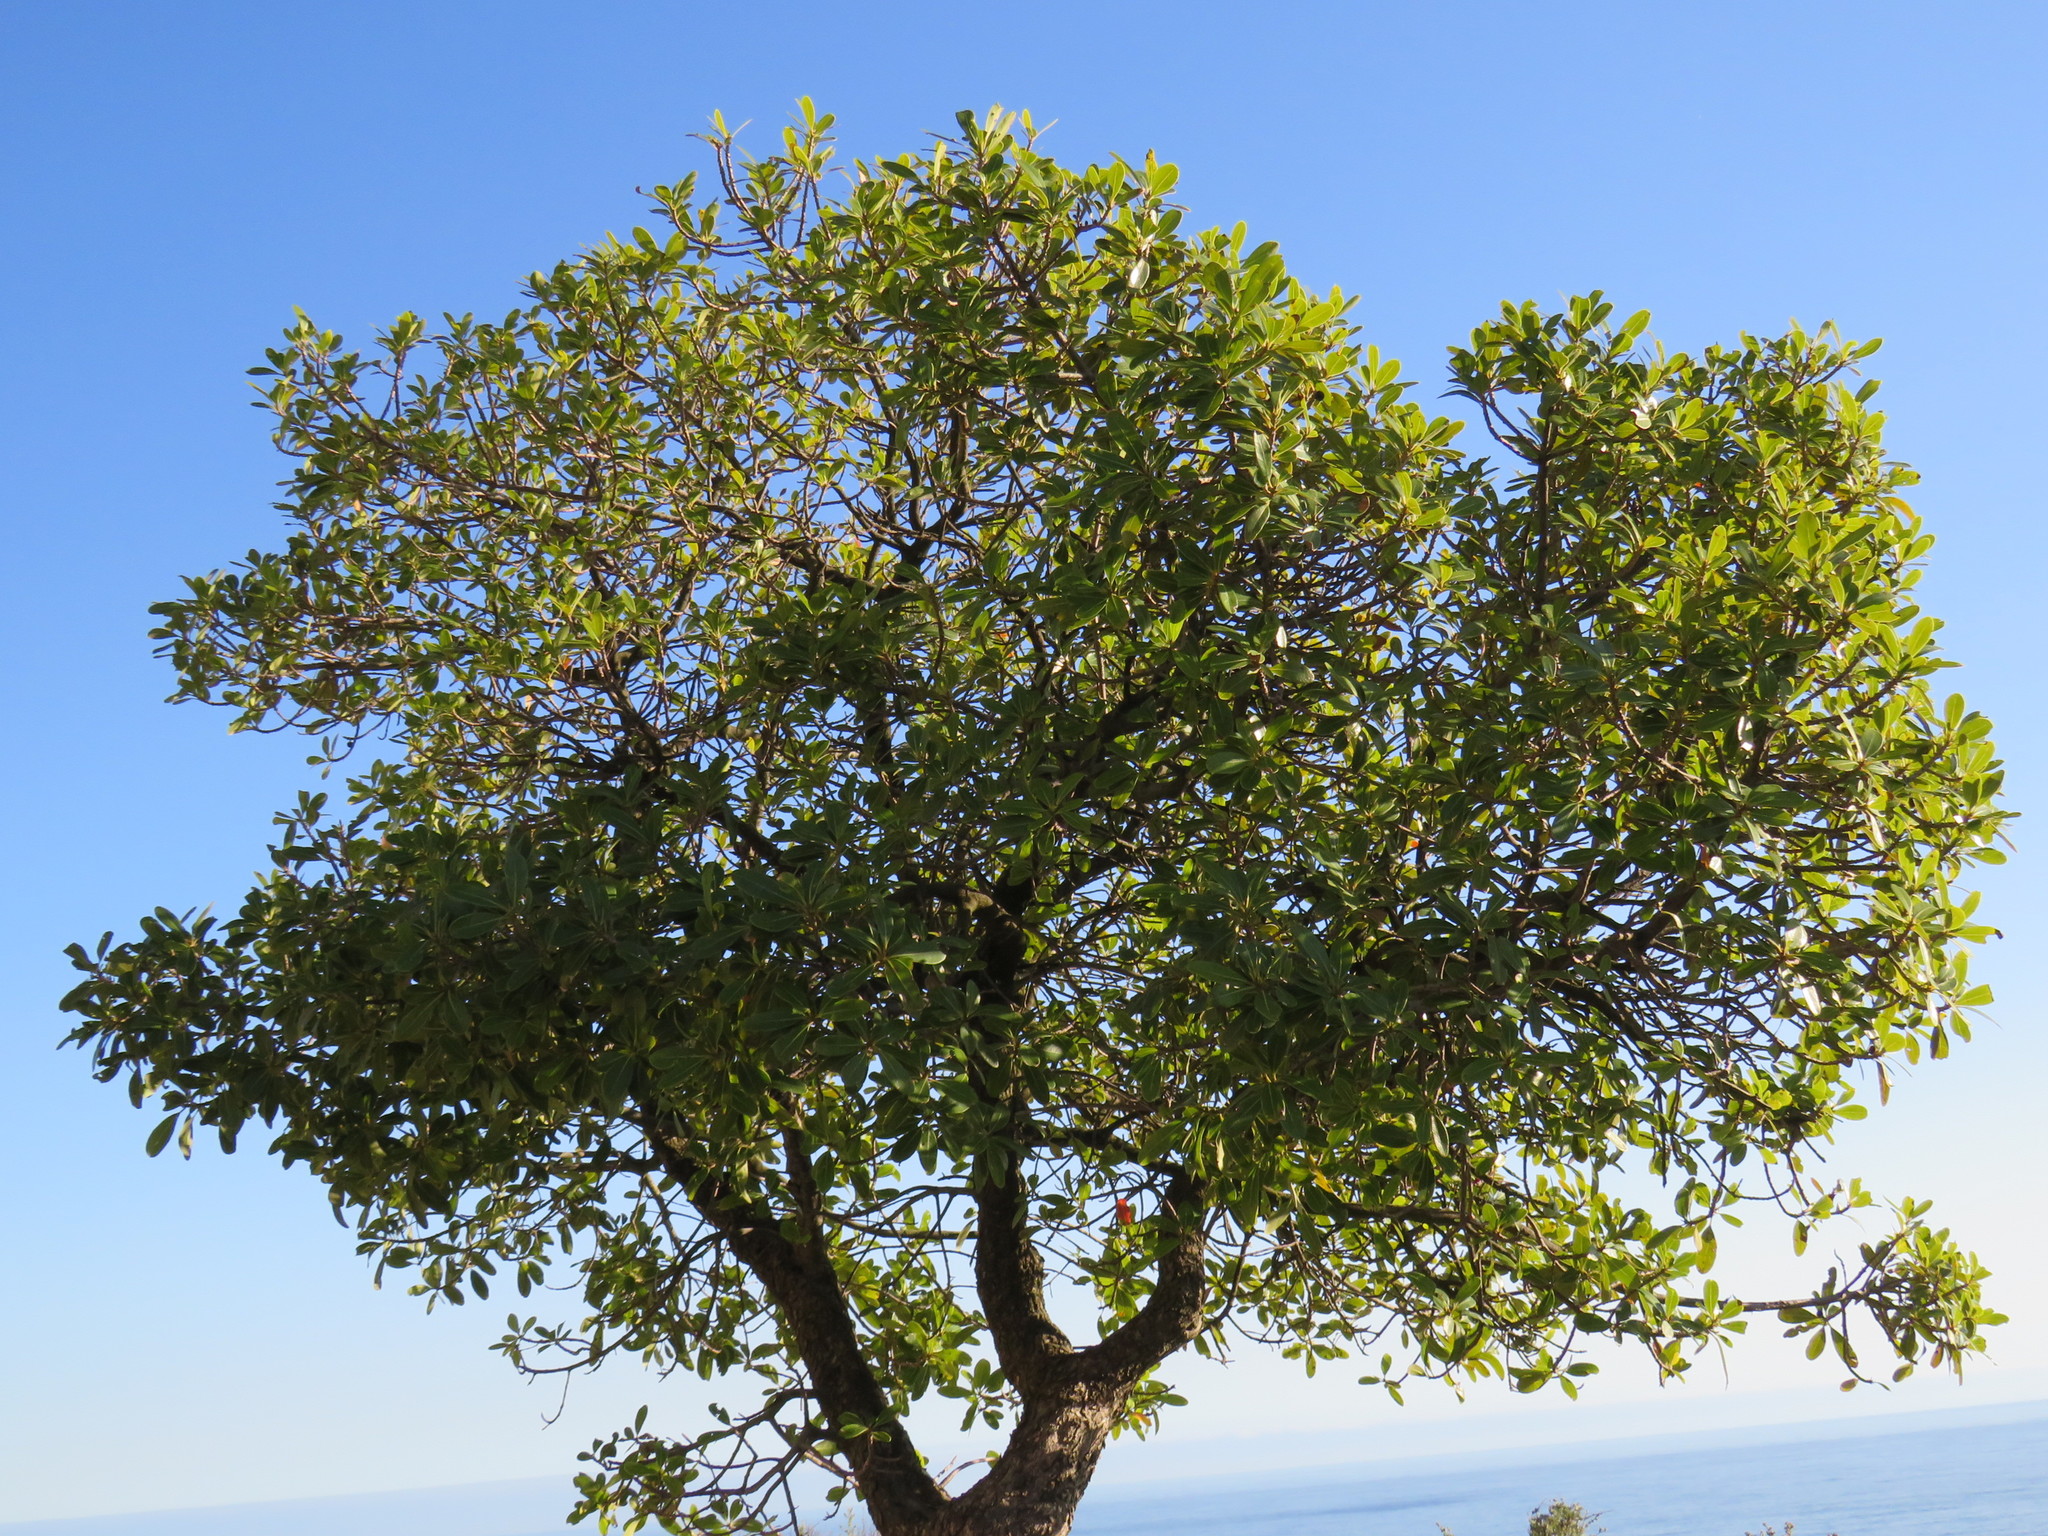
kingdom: Plantae
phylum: Tracheophyta
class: Magnoliopsida
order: Ericales
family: Sapotaceae
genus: Sideroxylon
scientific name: Sideroxylon inerme
